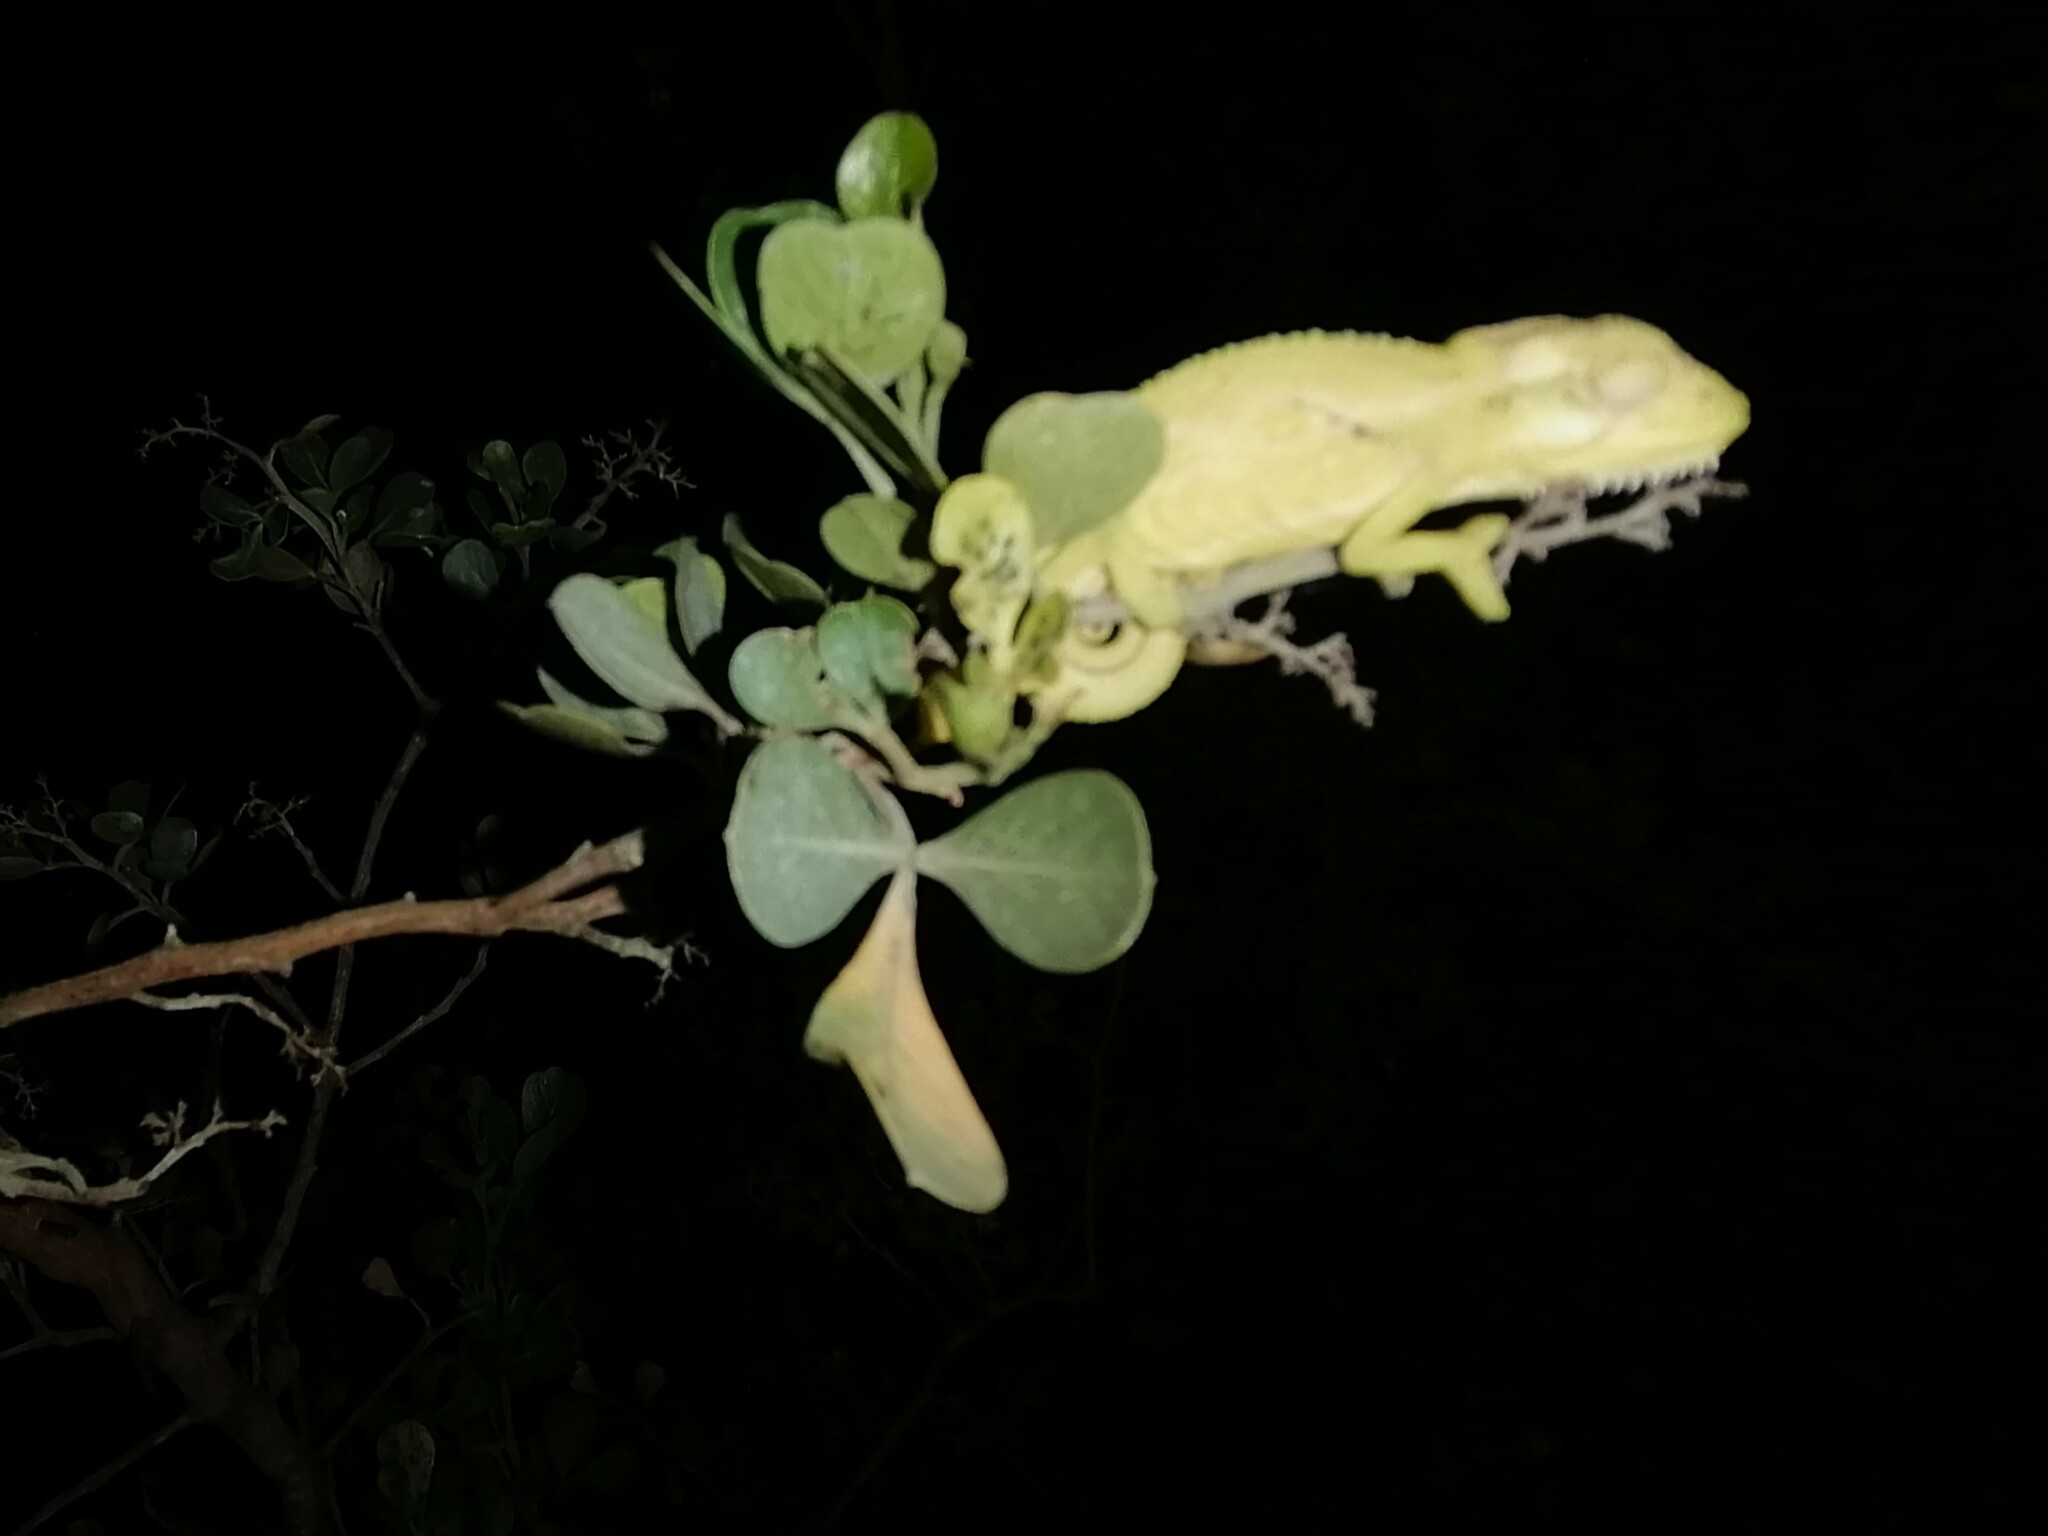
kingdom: Animalia
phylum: Chordata
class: Squamata
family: Chamaeleonidae
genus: Bradypodion
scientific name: Bradypodion pumilum
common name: Cape dwarf chameleon
